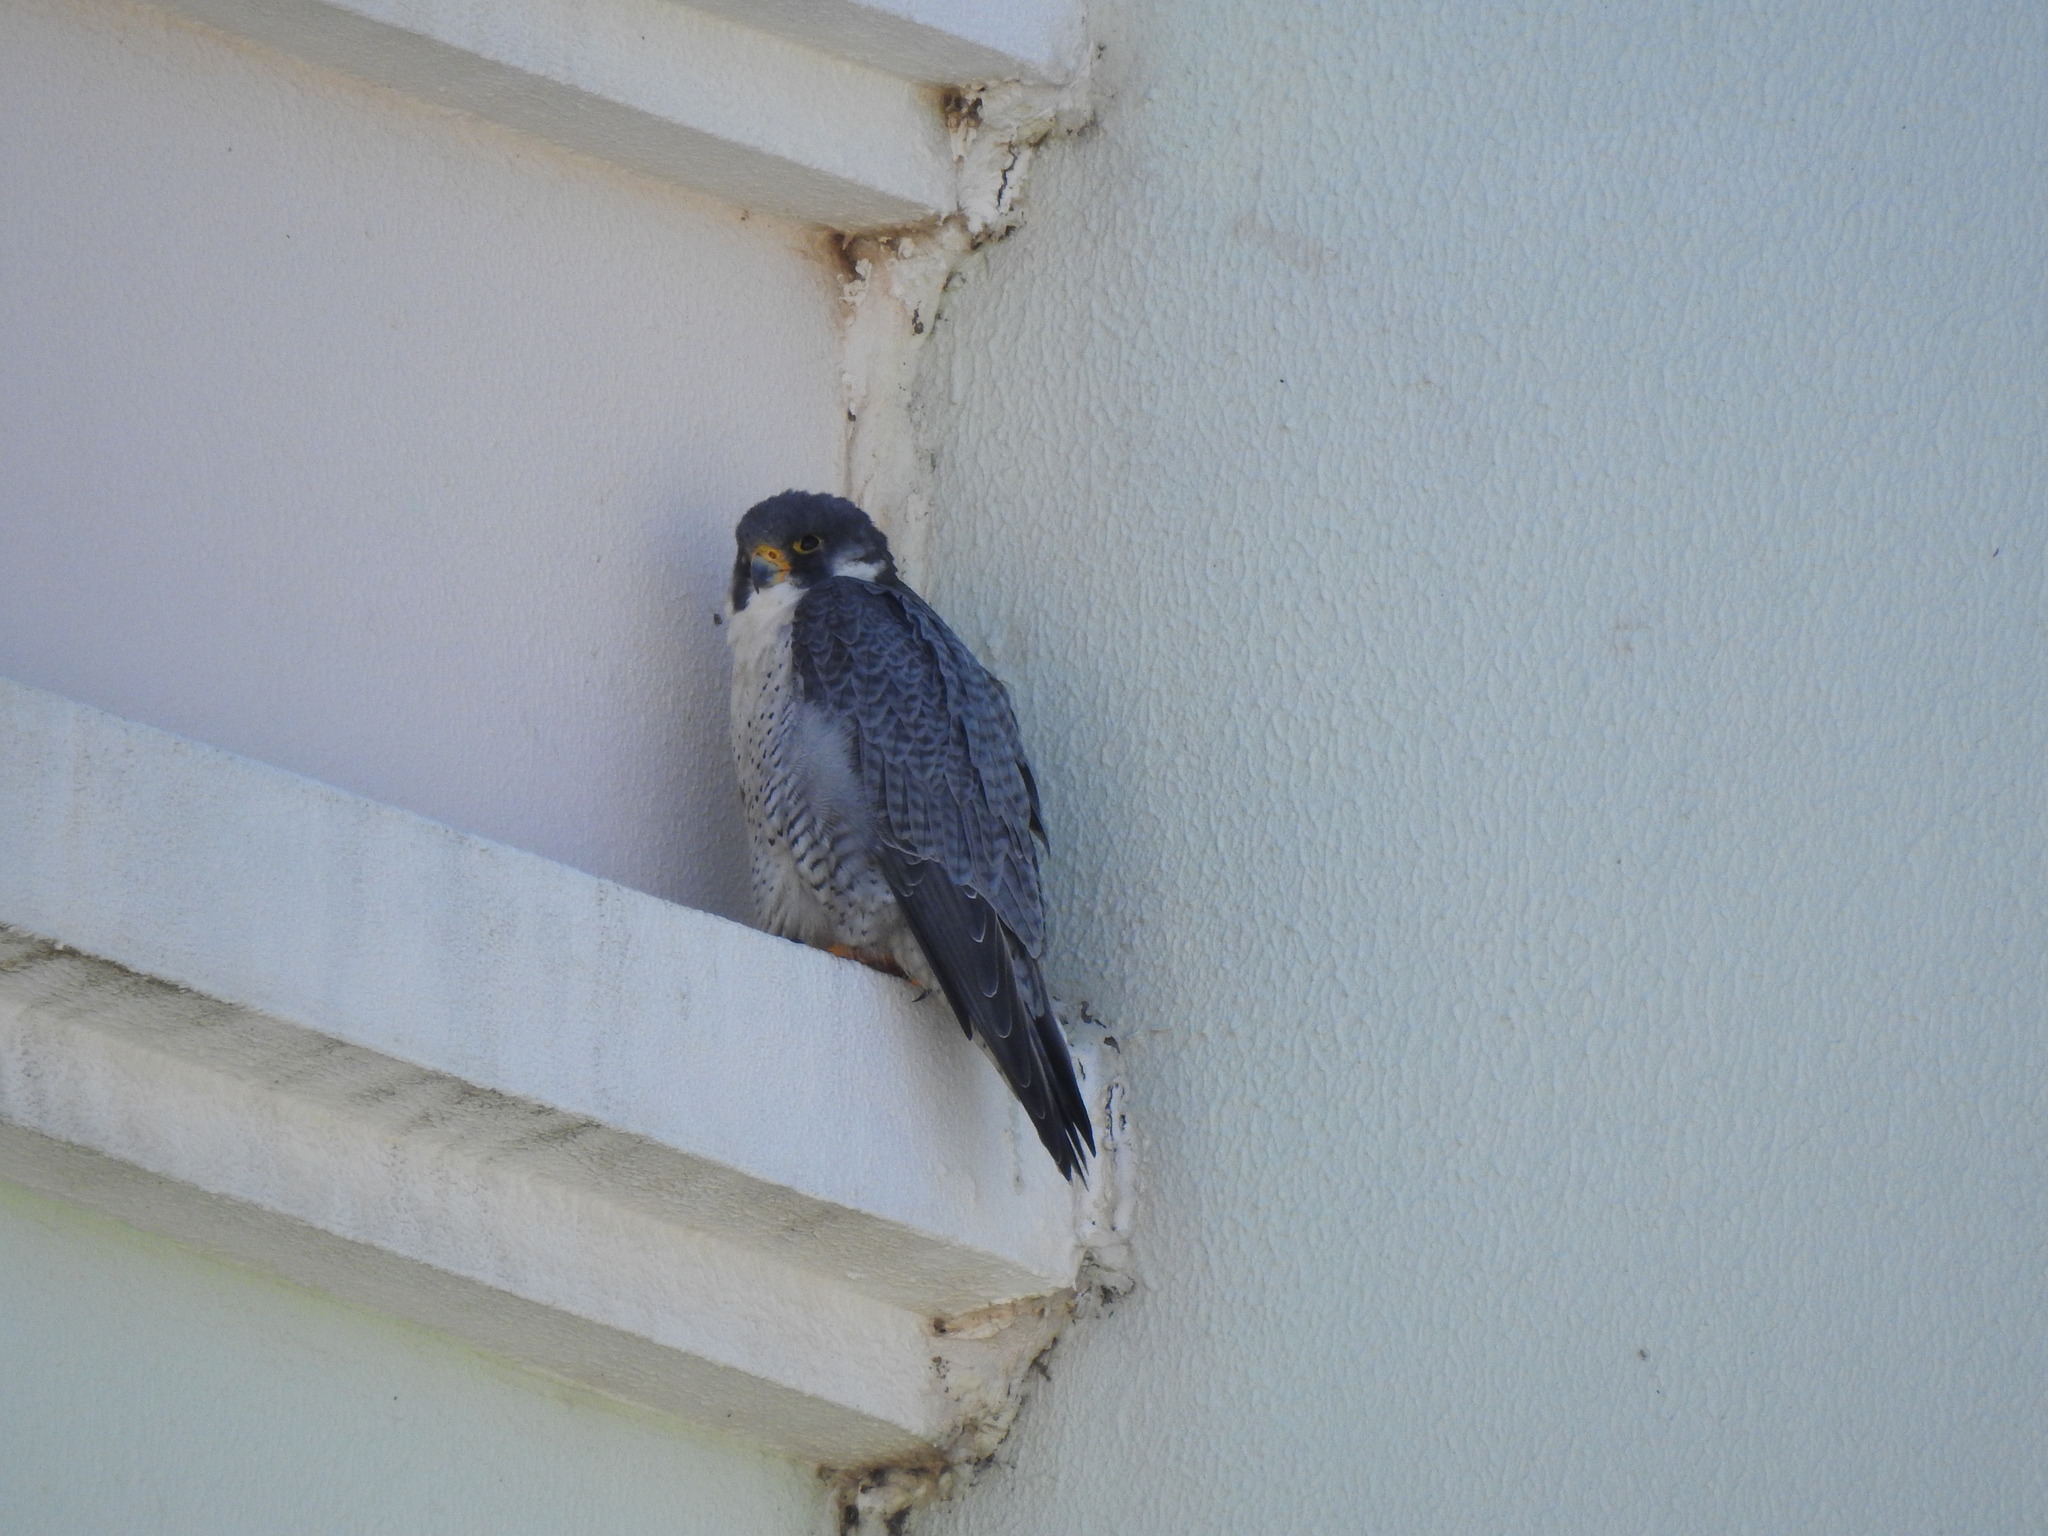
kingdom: Animalia
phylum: Chordata
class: Aves
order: Falconiformes
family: Falconidae
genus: Falco
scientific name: Falco peregrinus
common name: Peregrine falcon
